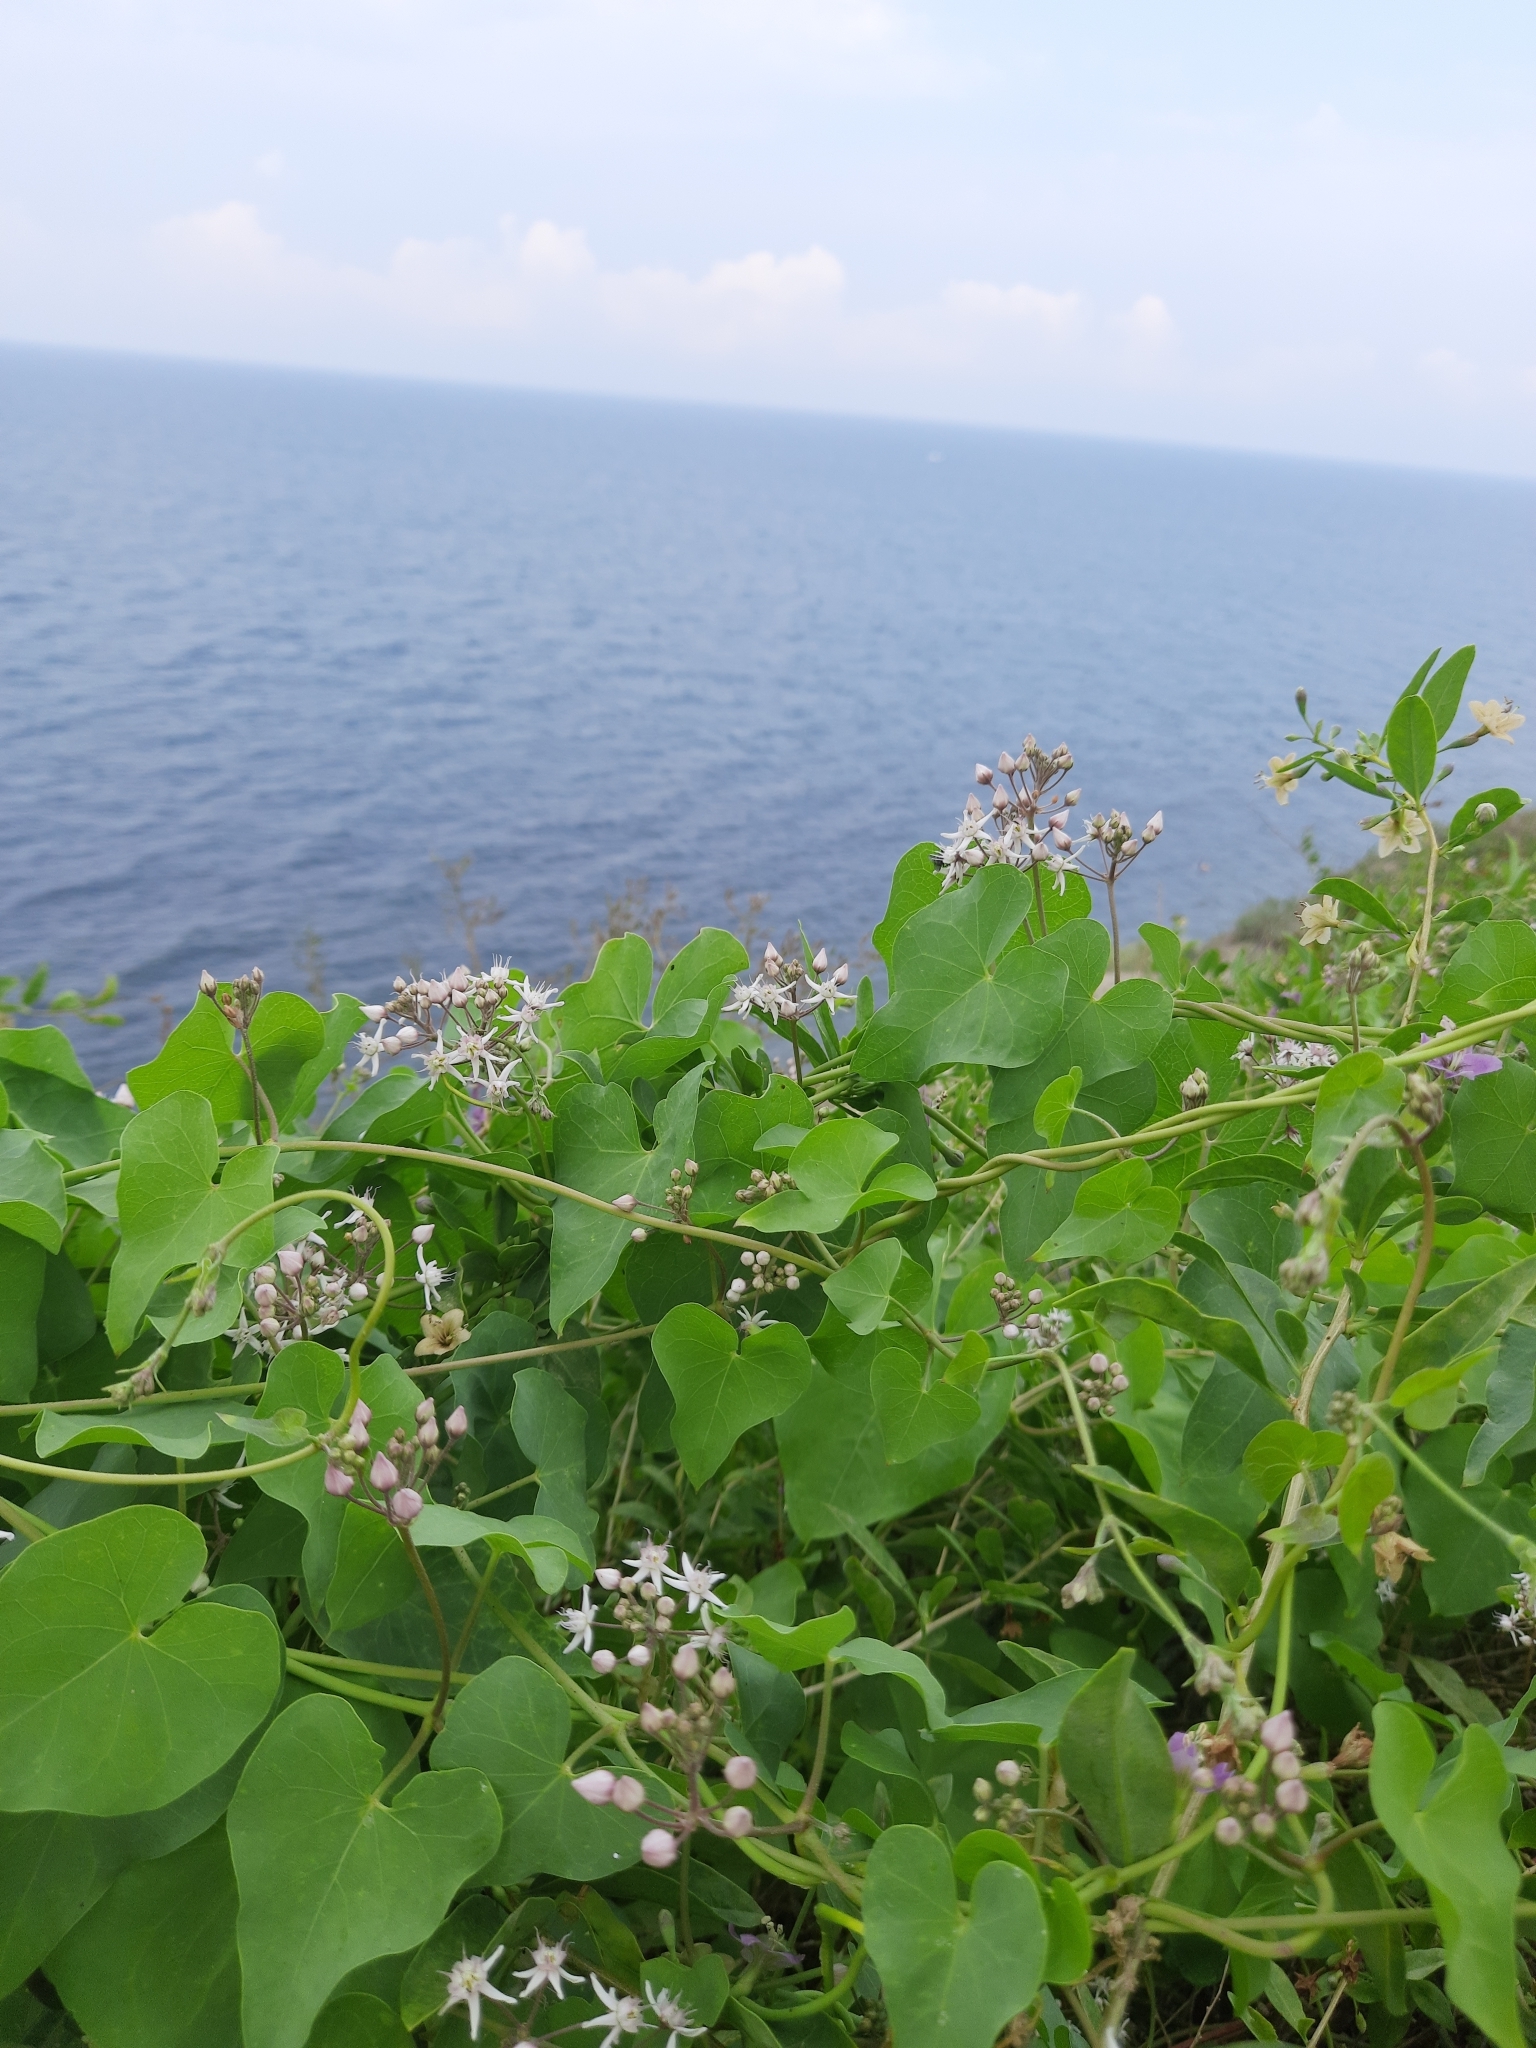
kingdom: Plantae
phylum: Tracheophyta
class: Magnoliopsida
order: Gentianales
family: Apocynaceae
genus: Cynanchum
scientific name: Cynanchum acutum
